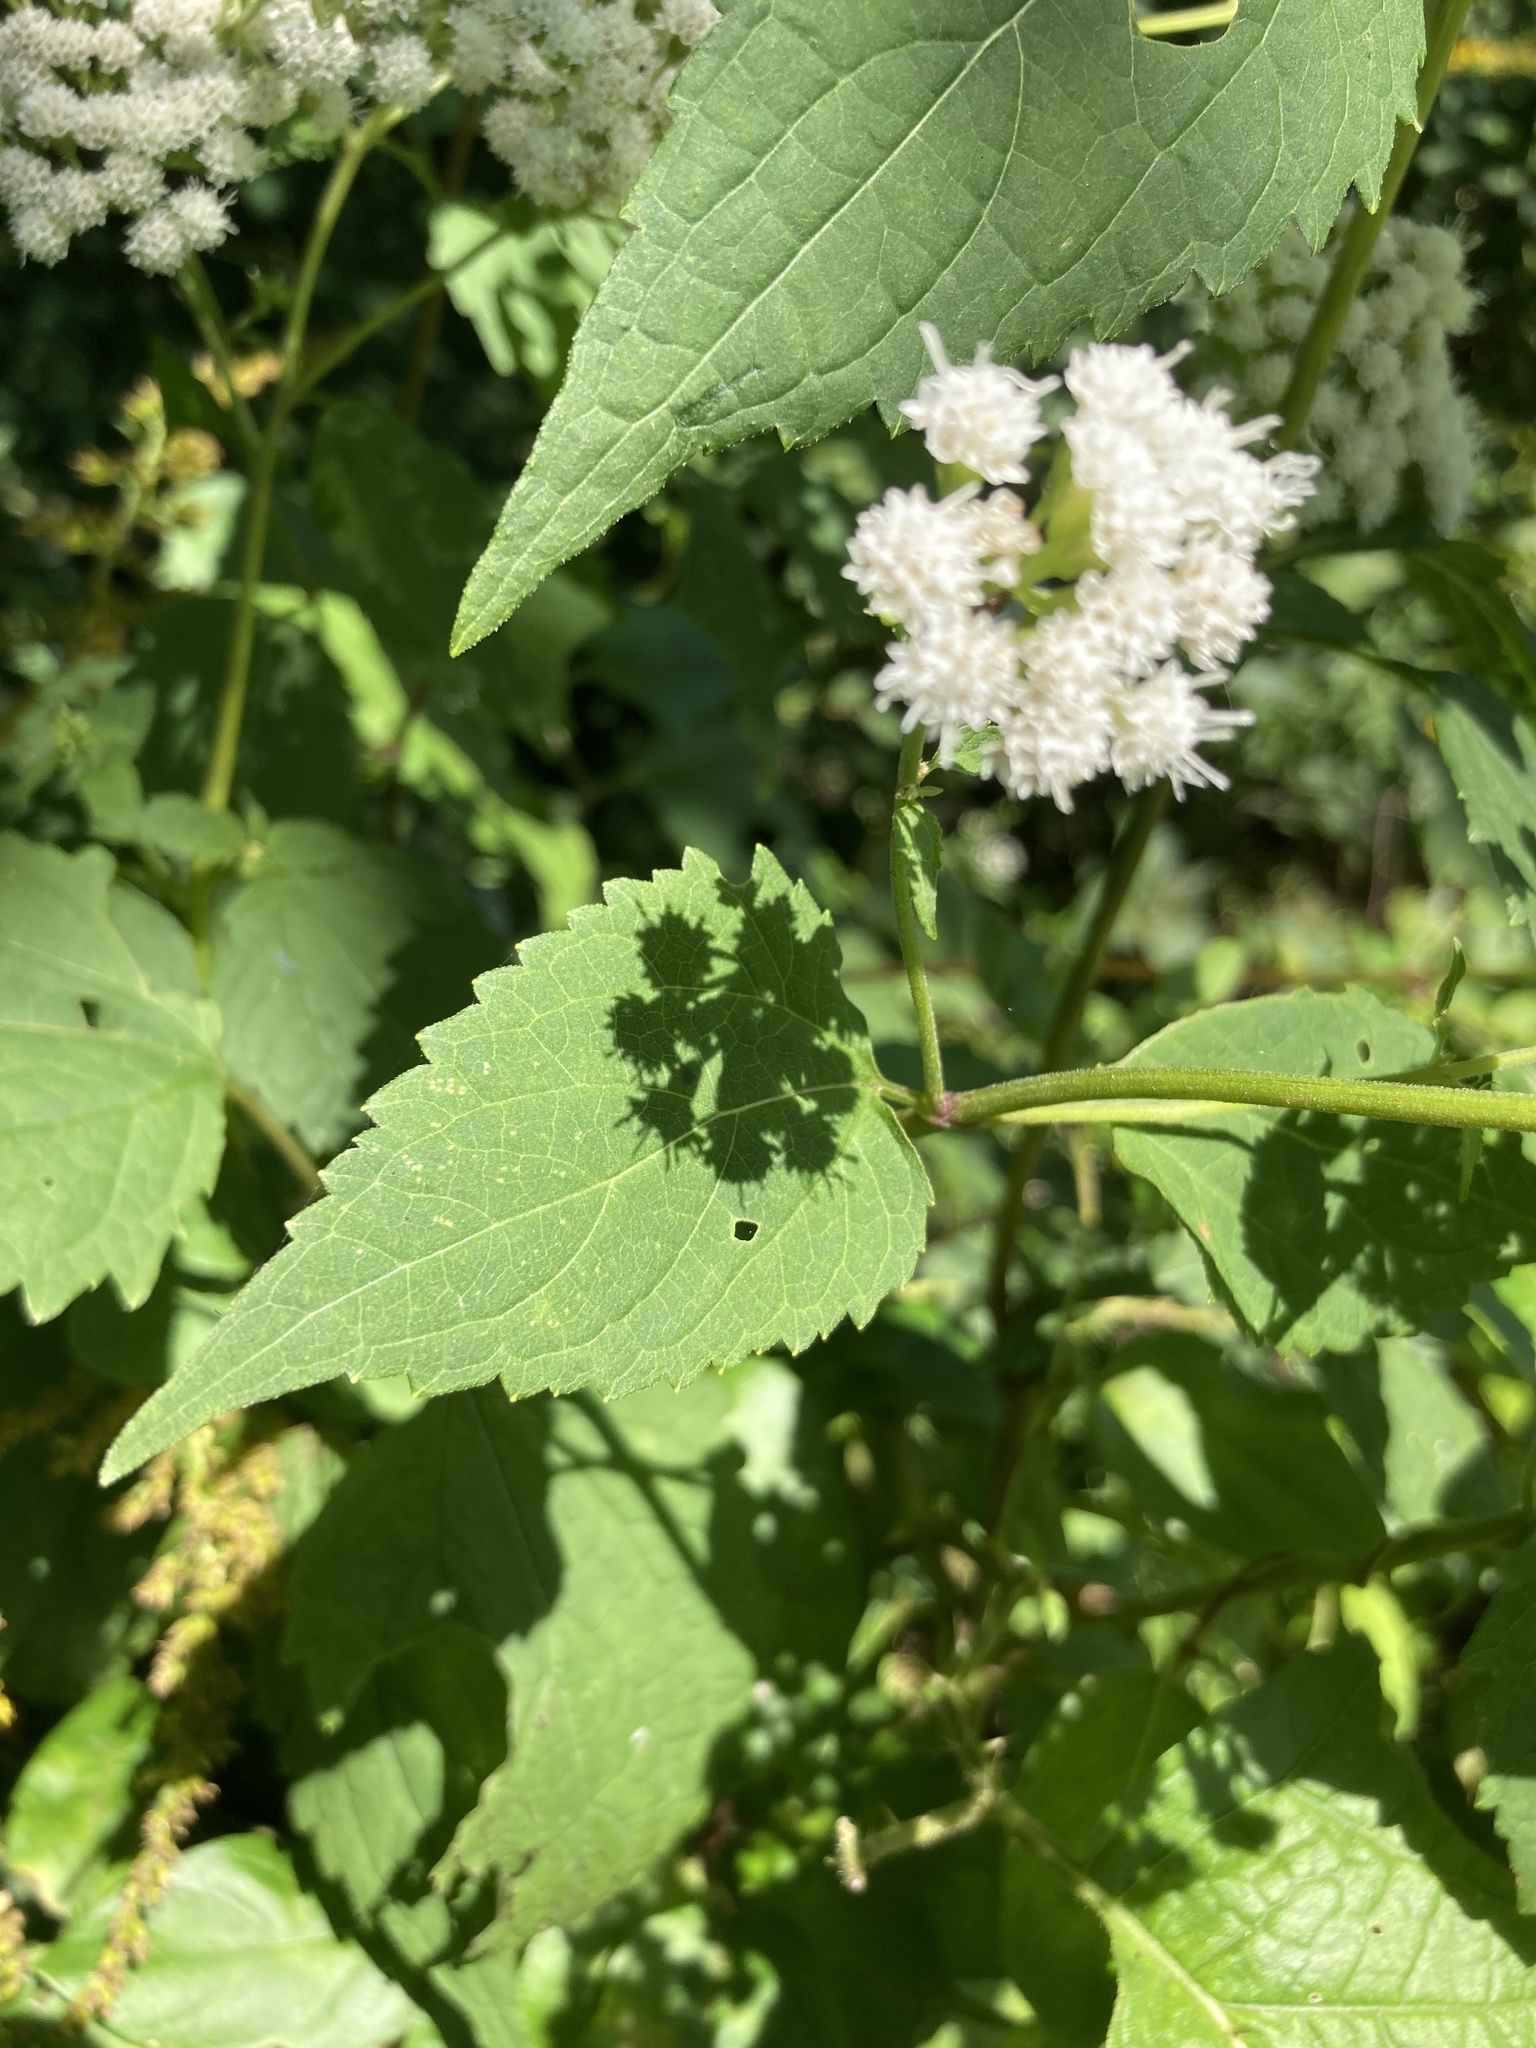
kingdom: Plantae
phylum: Tracheophyta
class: Magnoliopsida
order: Asterales
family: Asteraceae
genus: Ageratina
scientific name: Ageratina altissima
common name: White snakeroot
